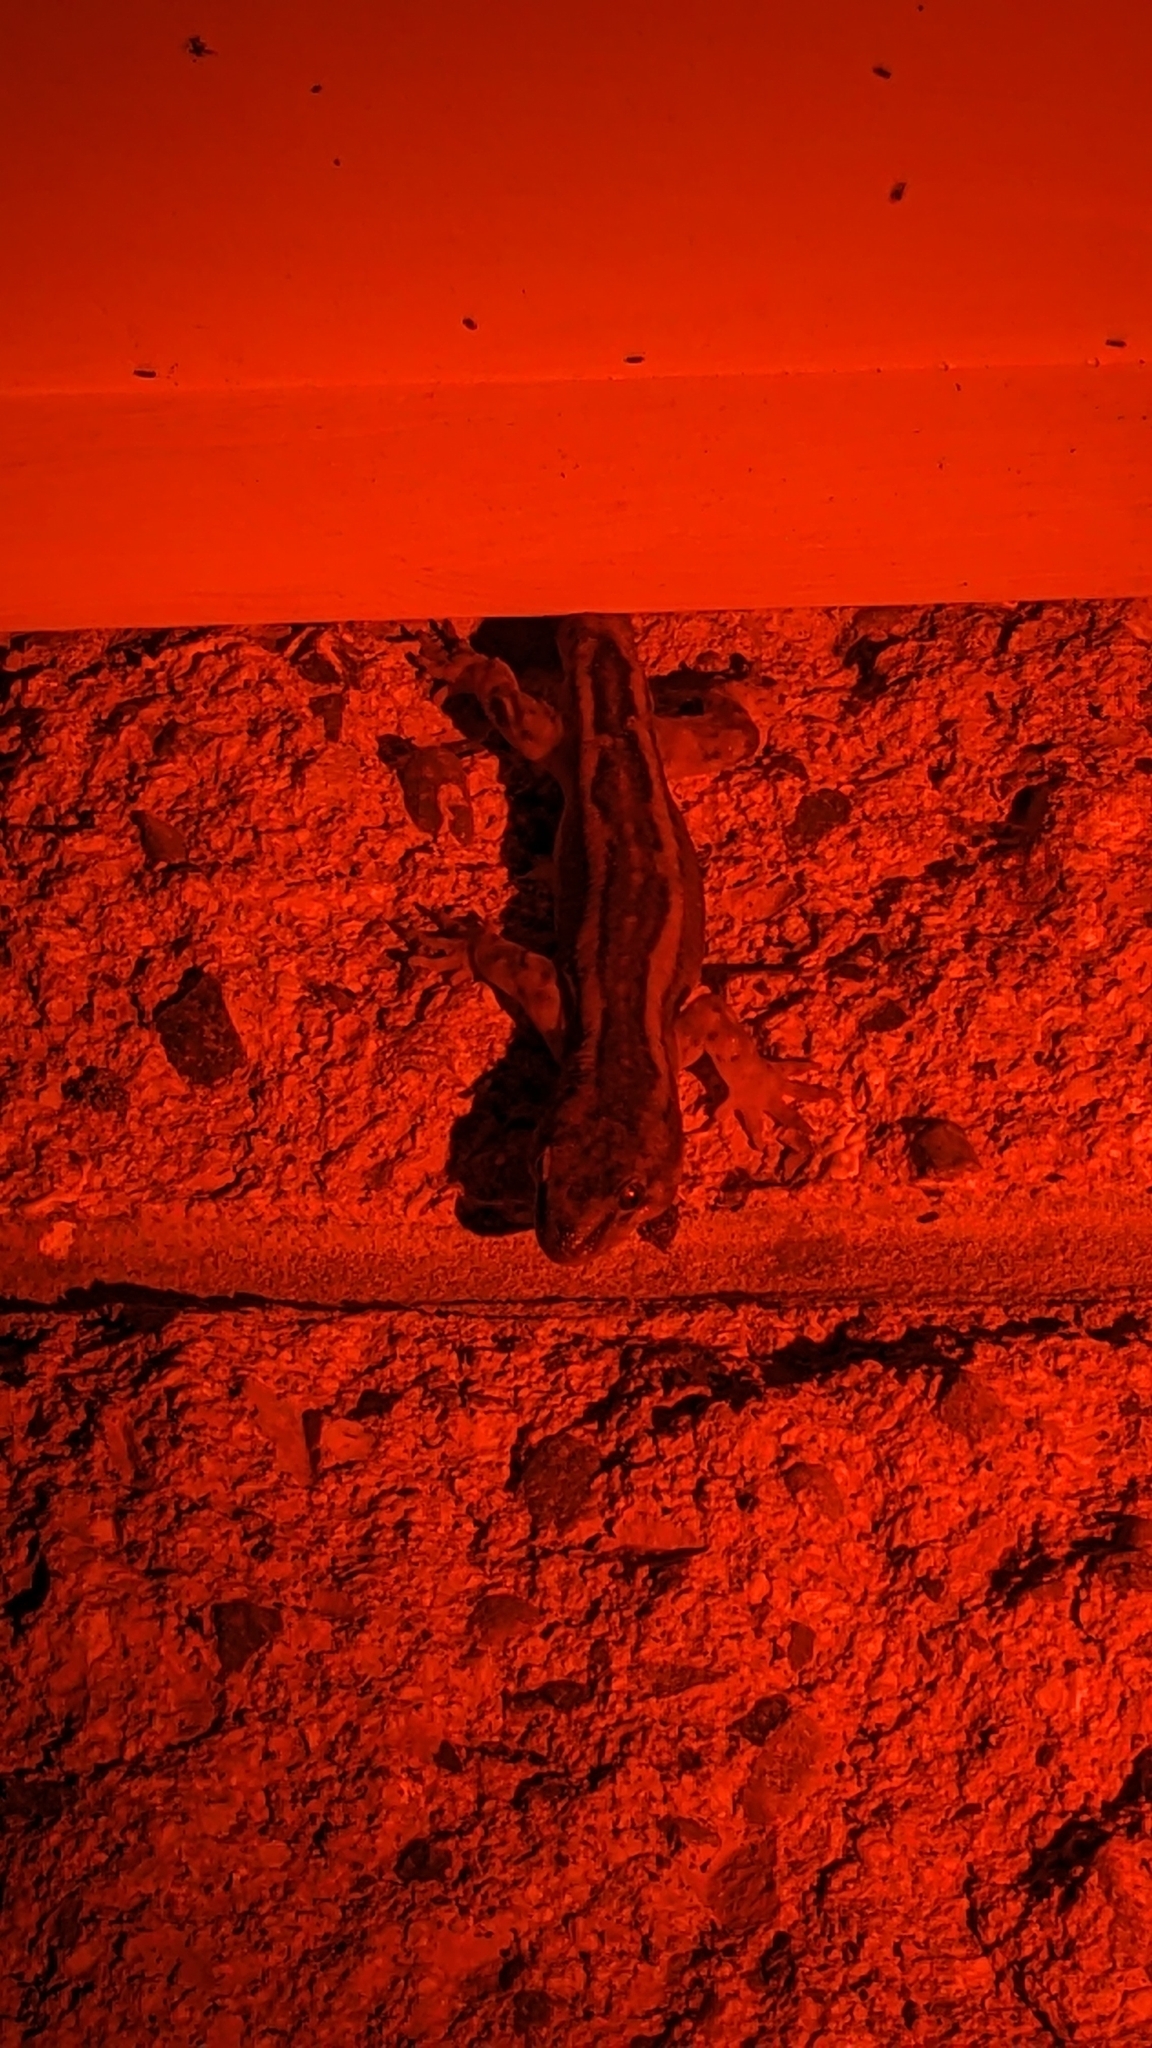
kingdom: Animalia
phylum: Chordata
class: Squamata
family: Diplodactylidae
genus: Woodworthia
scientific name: Woodworthia maculata
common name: Raukawa gecko
